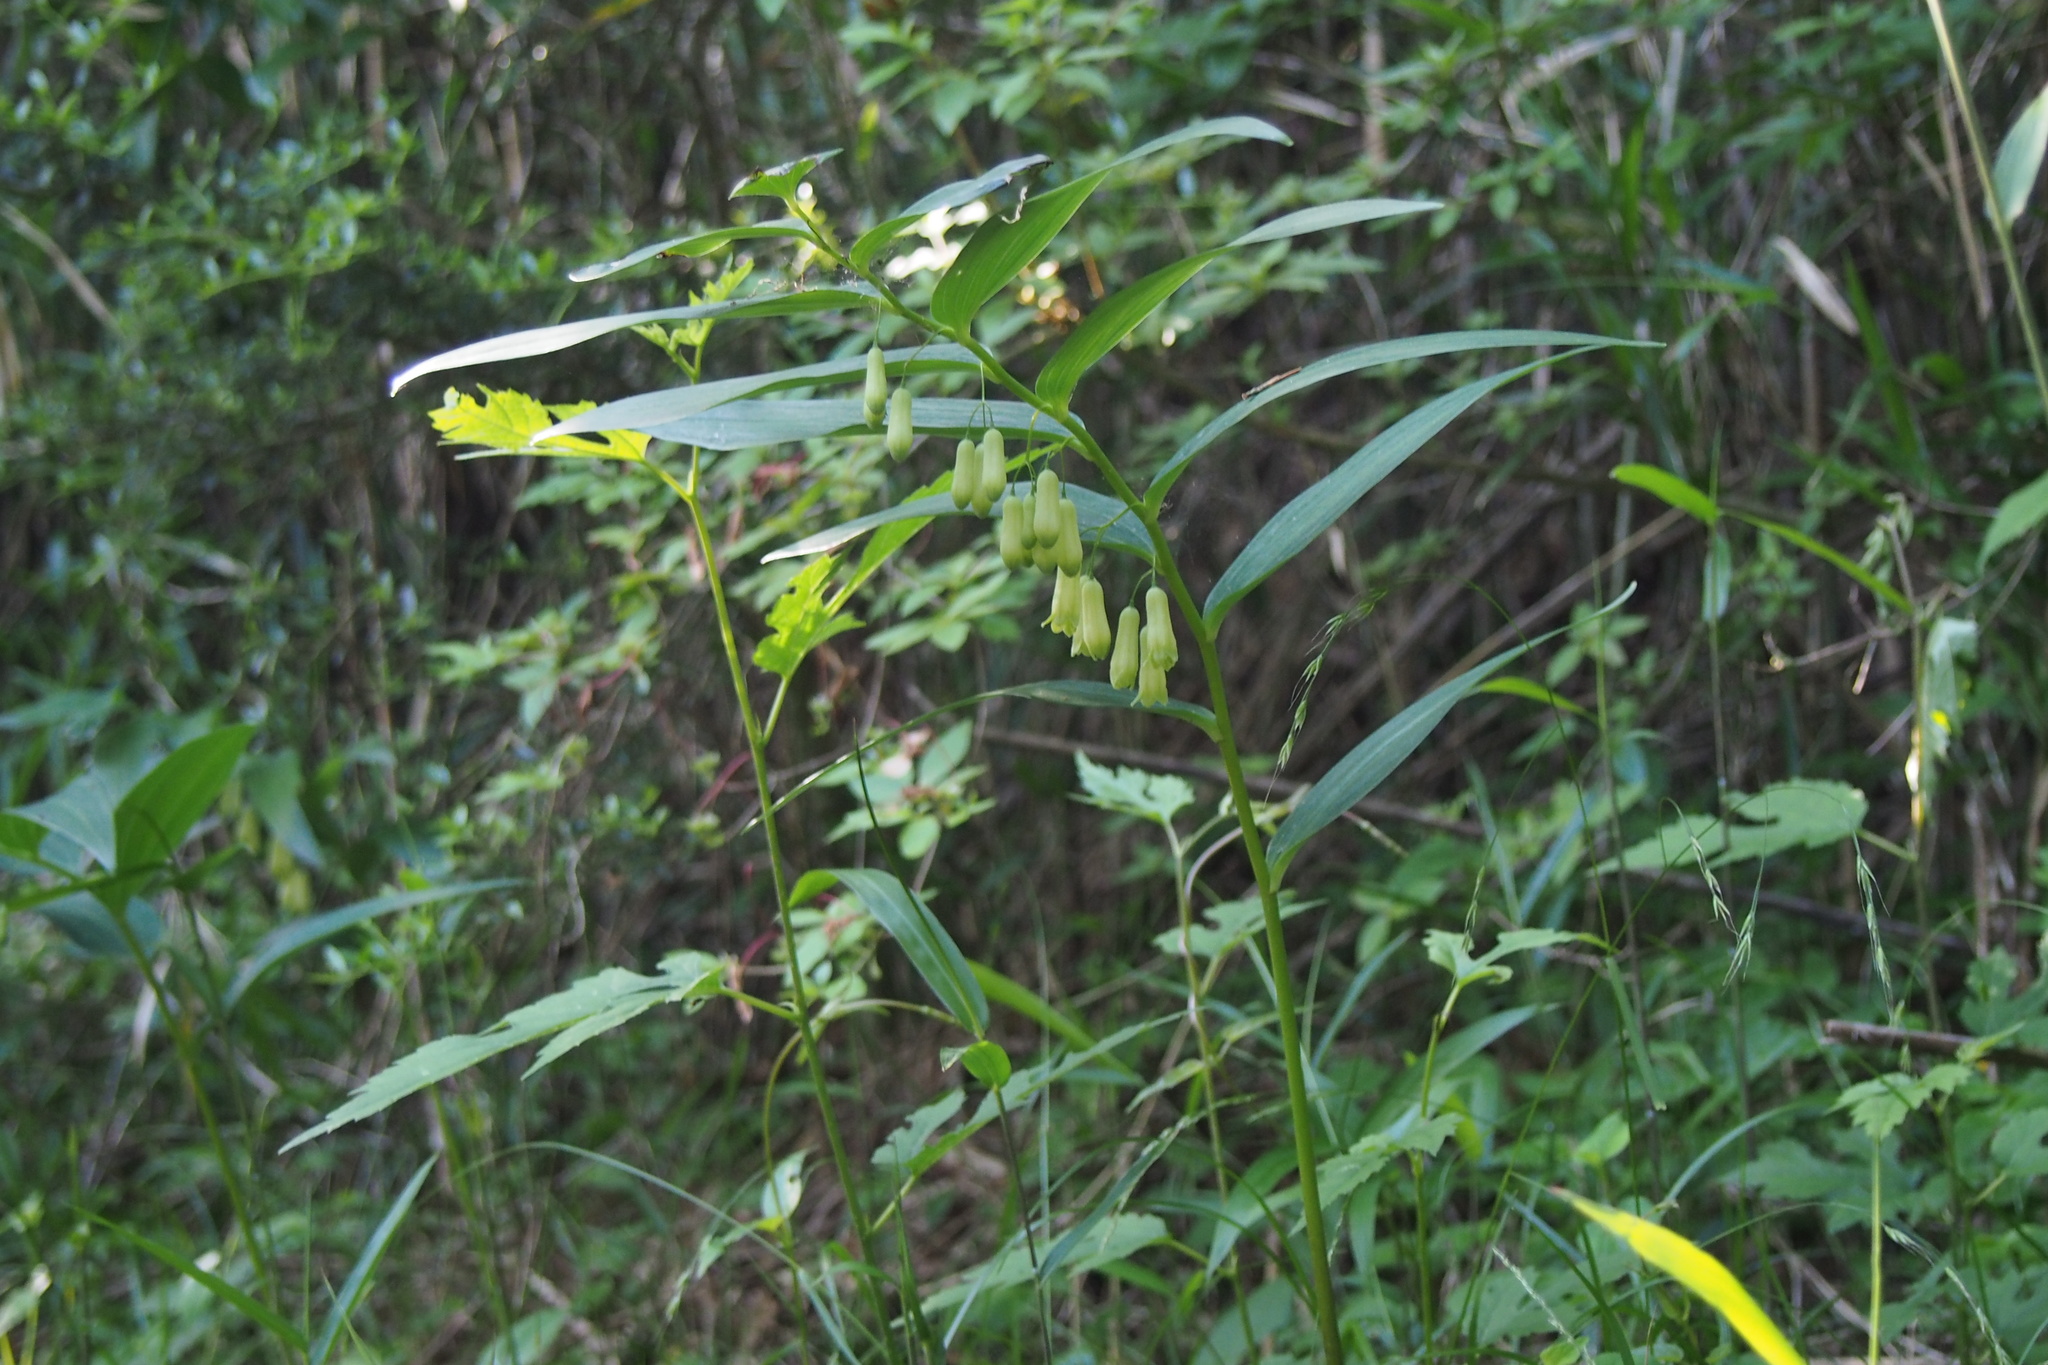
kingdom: Plantae
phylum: Tracheophyta
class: Liliopsida
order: Asparagales
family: Asparagaceae
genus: Polygonatum
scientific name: Polygonatum falcatum
